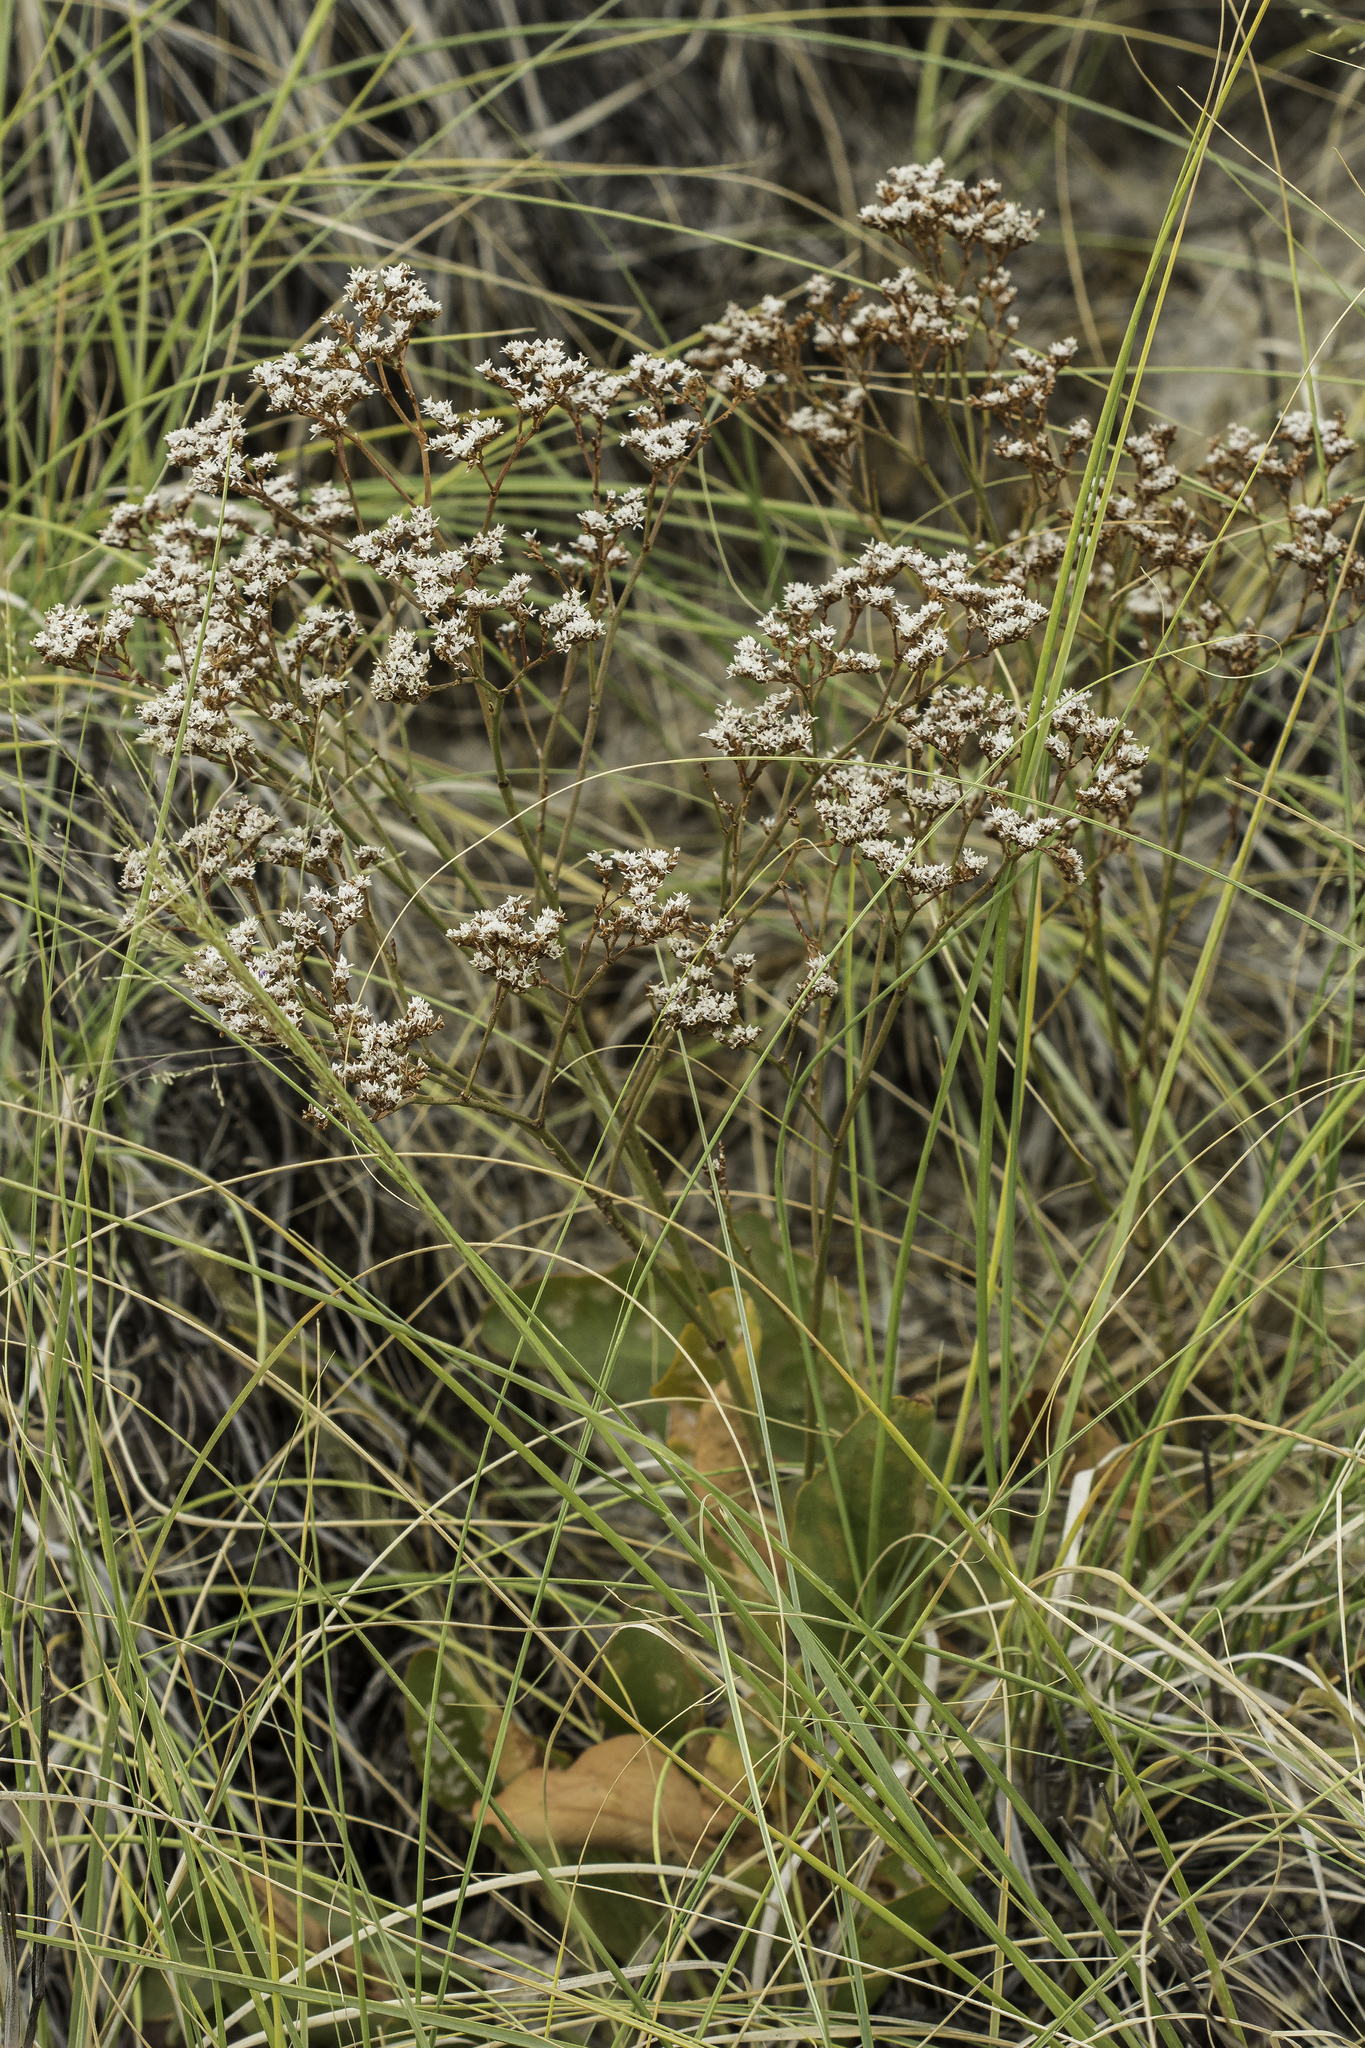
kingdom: Plantae
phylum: Tracheophyta
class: Magnoliopsida
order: Caryophyllales
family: Plumbaginaceae
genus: Limonium
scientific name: Limonium limbatum
